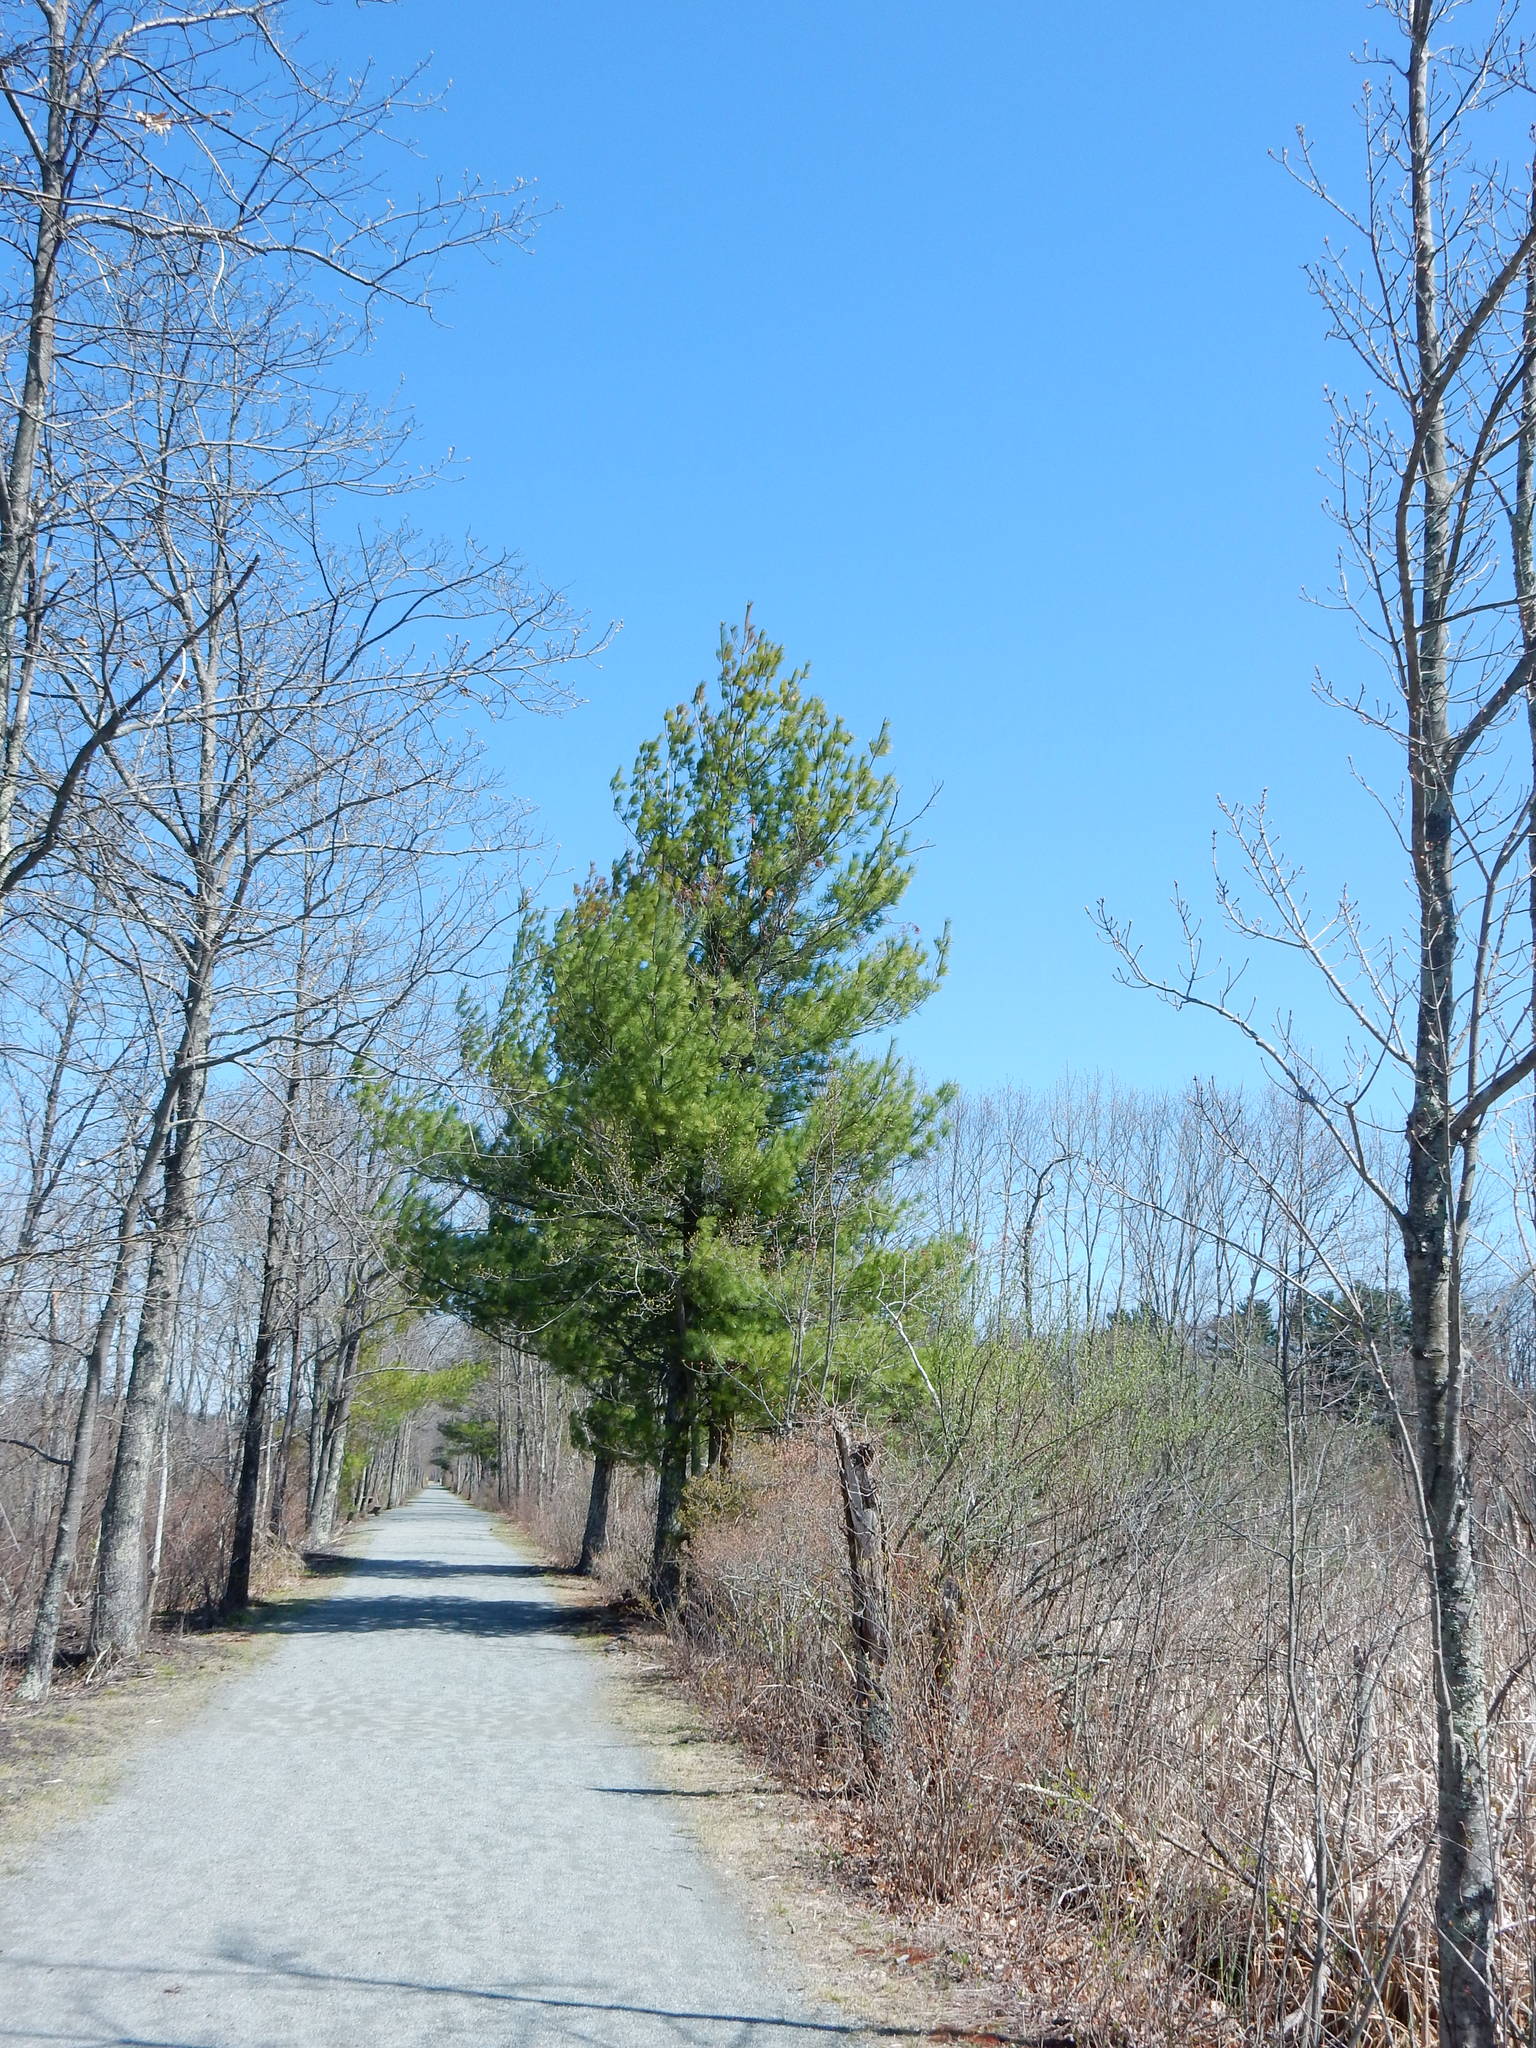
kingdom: Plantae
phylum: Tracheophyta
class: Pinopsida
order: Pinales
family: Pinaceae
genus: Pinus
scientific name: Pinus strobus
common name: Weymouth pine
